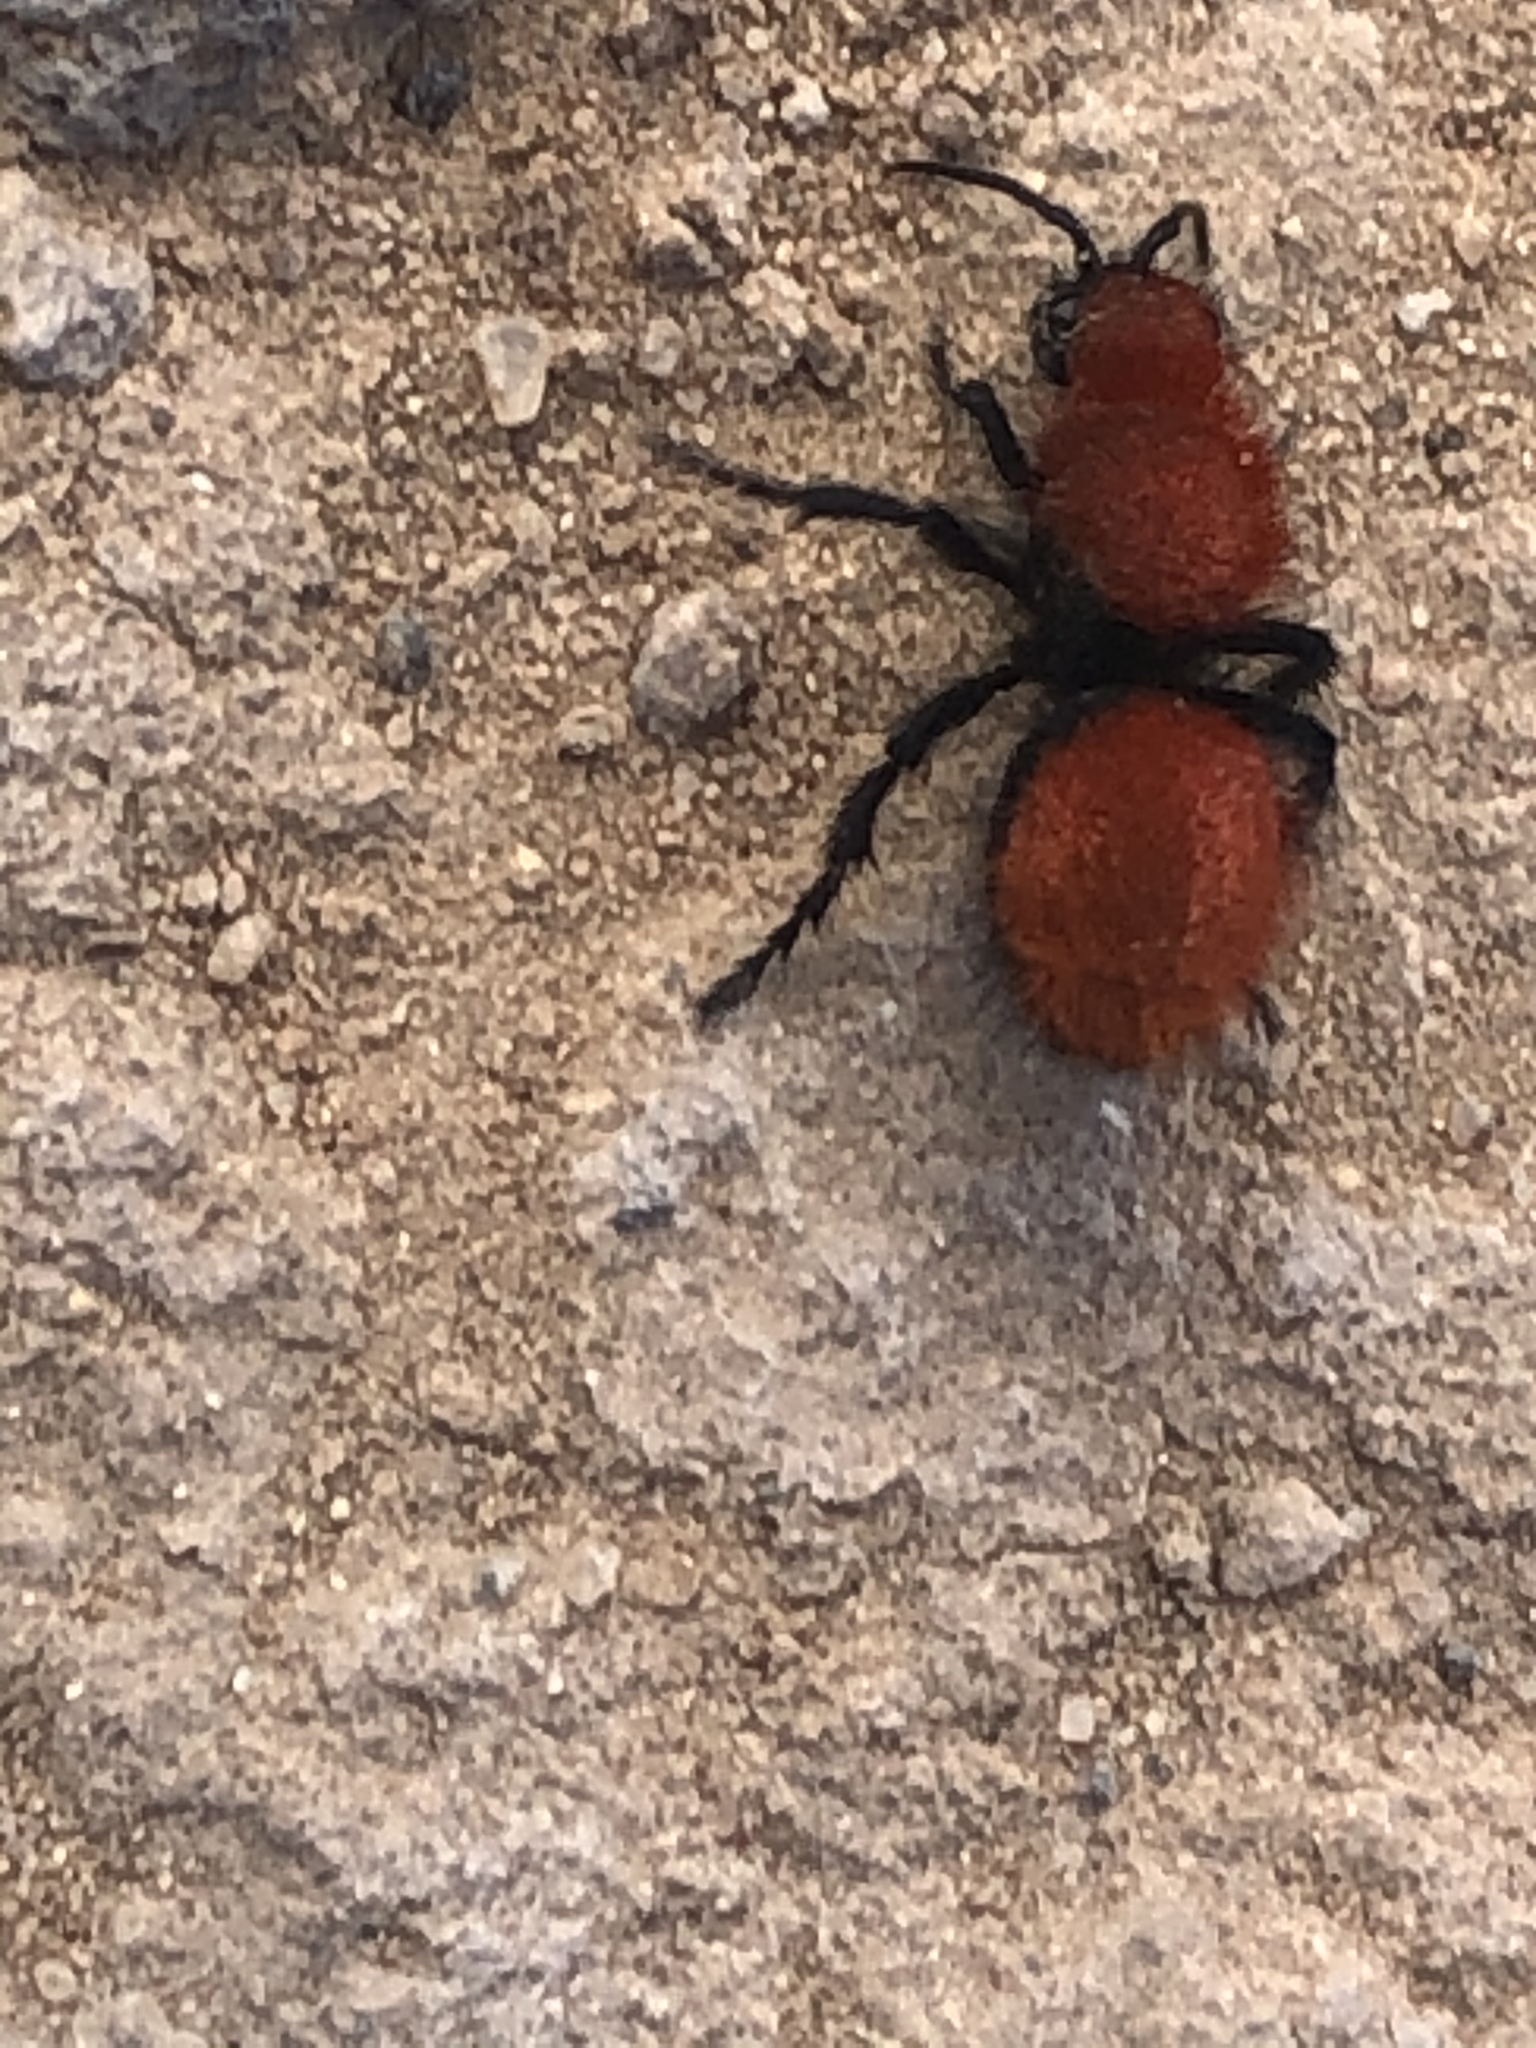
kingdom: Animalia
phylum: Arthropoda
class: Insecta
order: Hymenoptera
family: Mutillidae
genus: Dasymutilla
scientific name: Dasymutilla vestita
